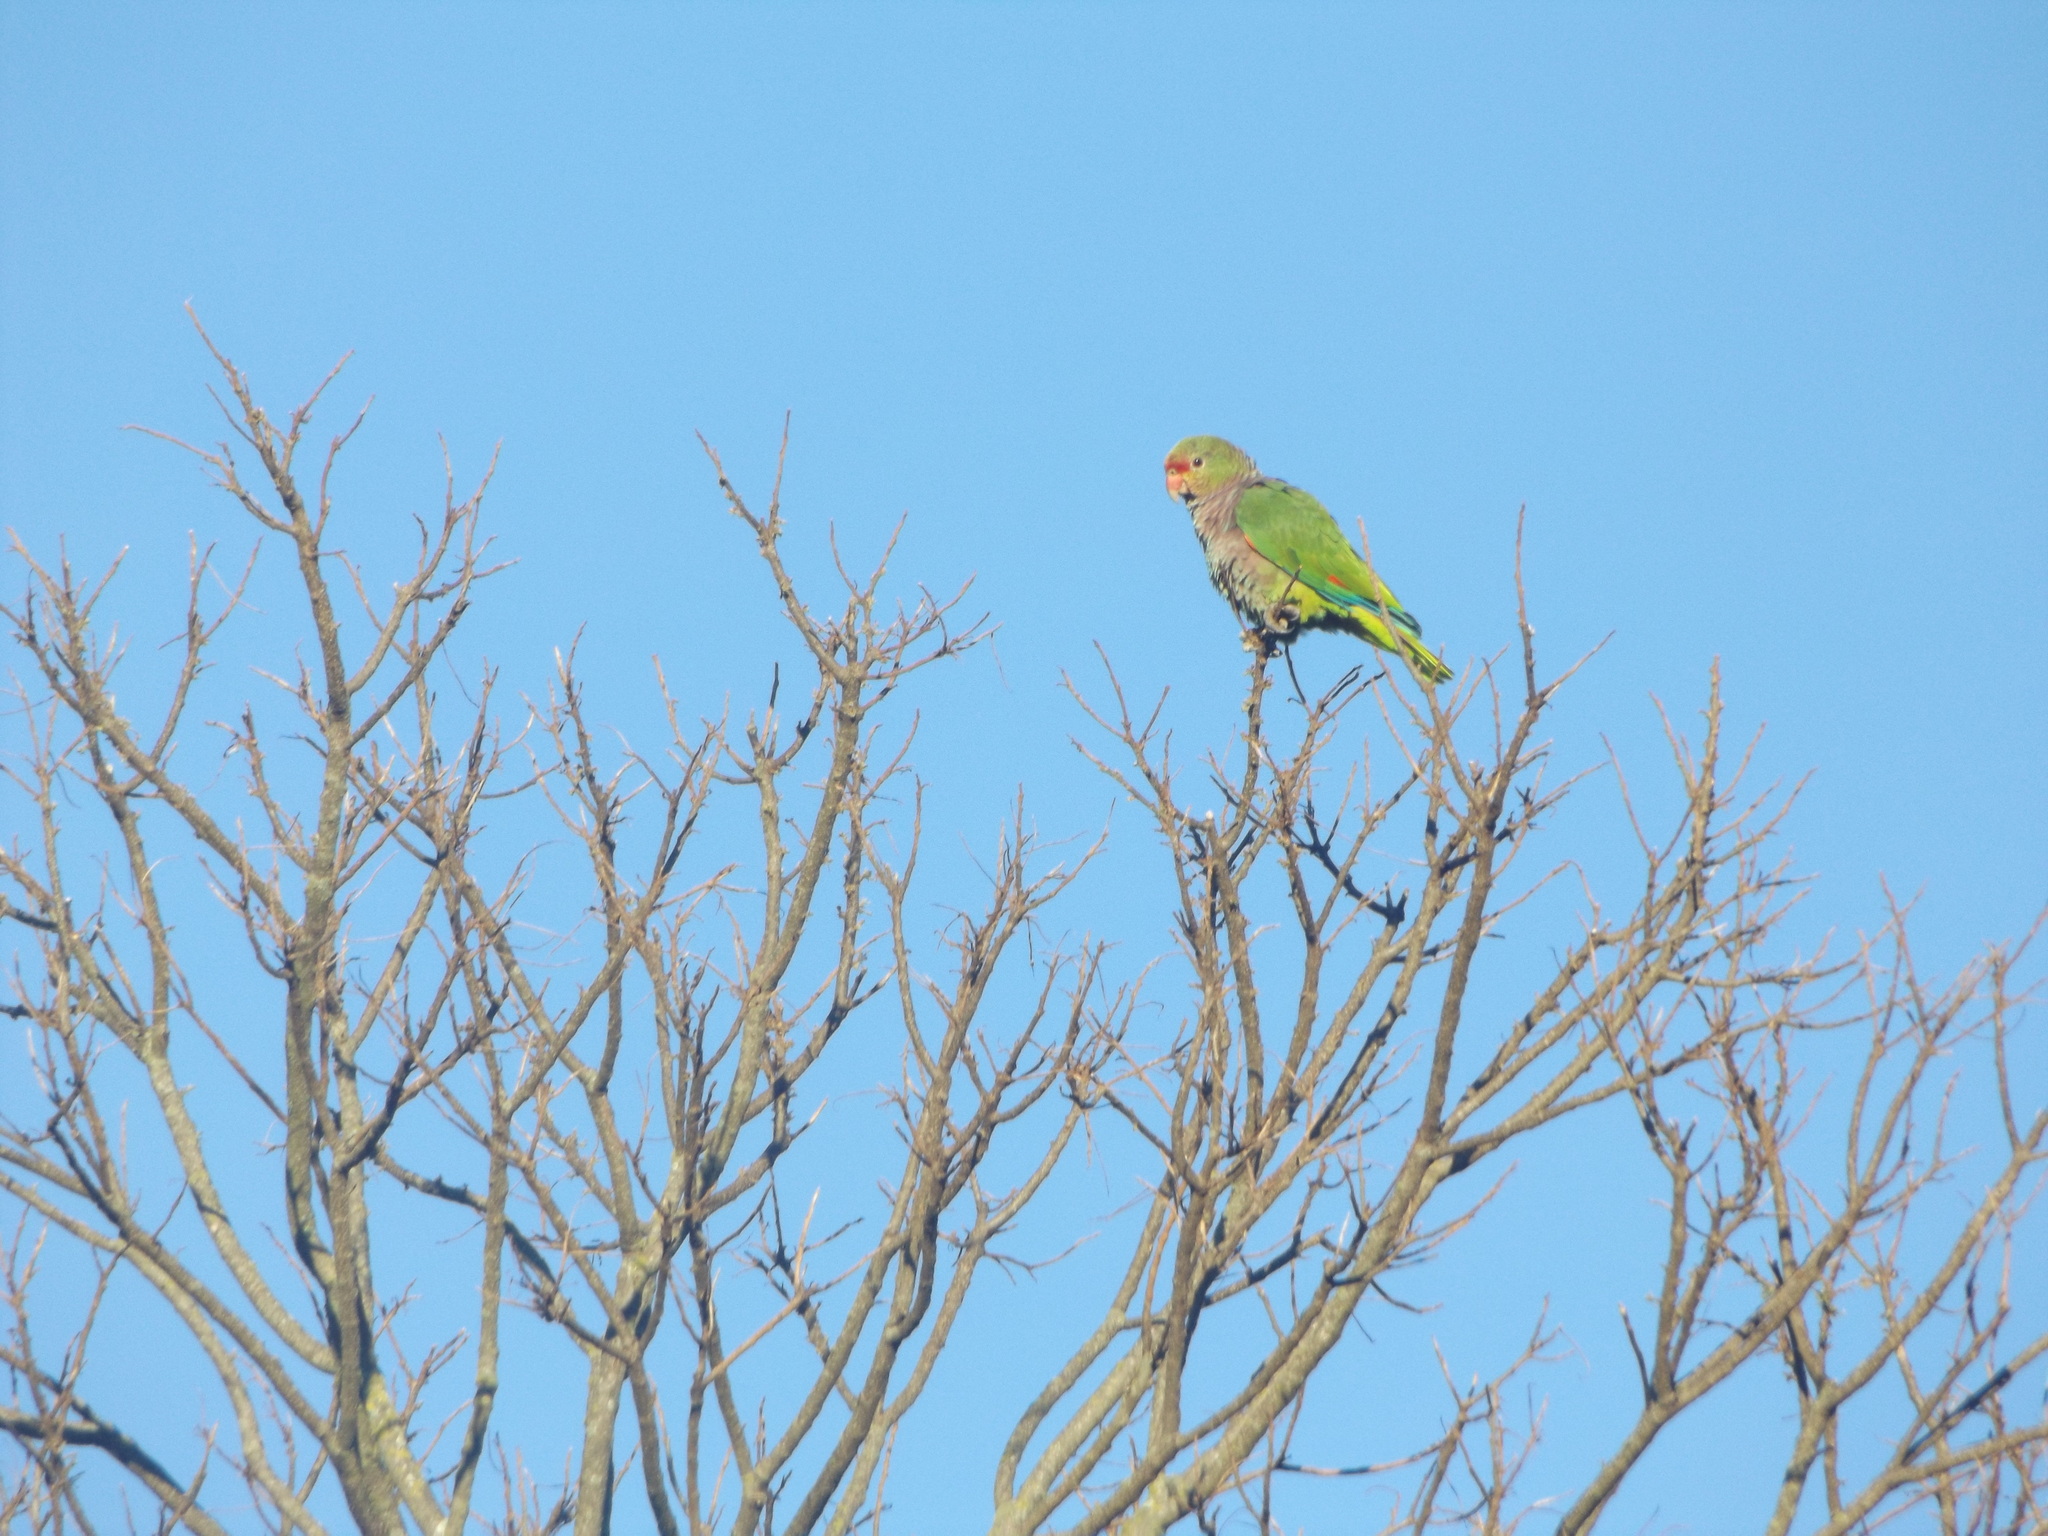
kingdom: Animalia
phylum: Chordata
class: Aves
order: Psittaciformes
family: Psittacidae
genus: Amazona
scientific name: Amazona vinacea
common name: Vinaceous-breasted amazon
